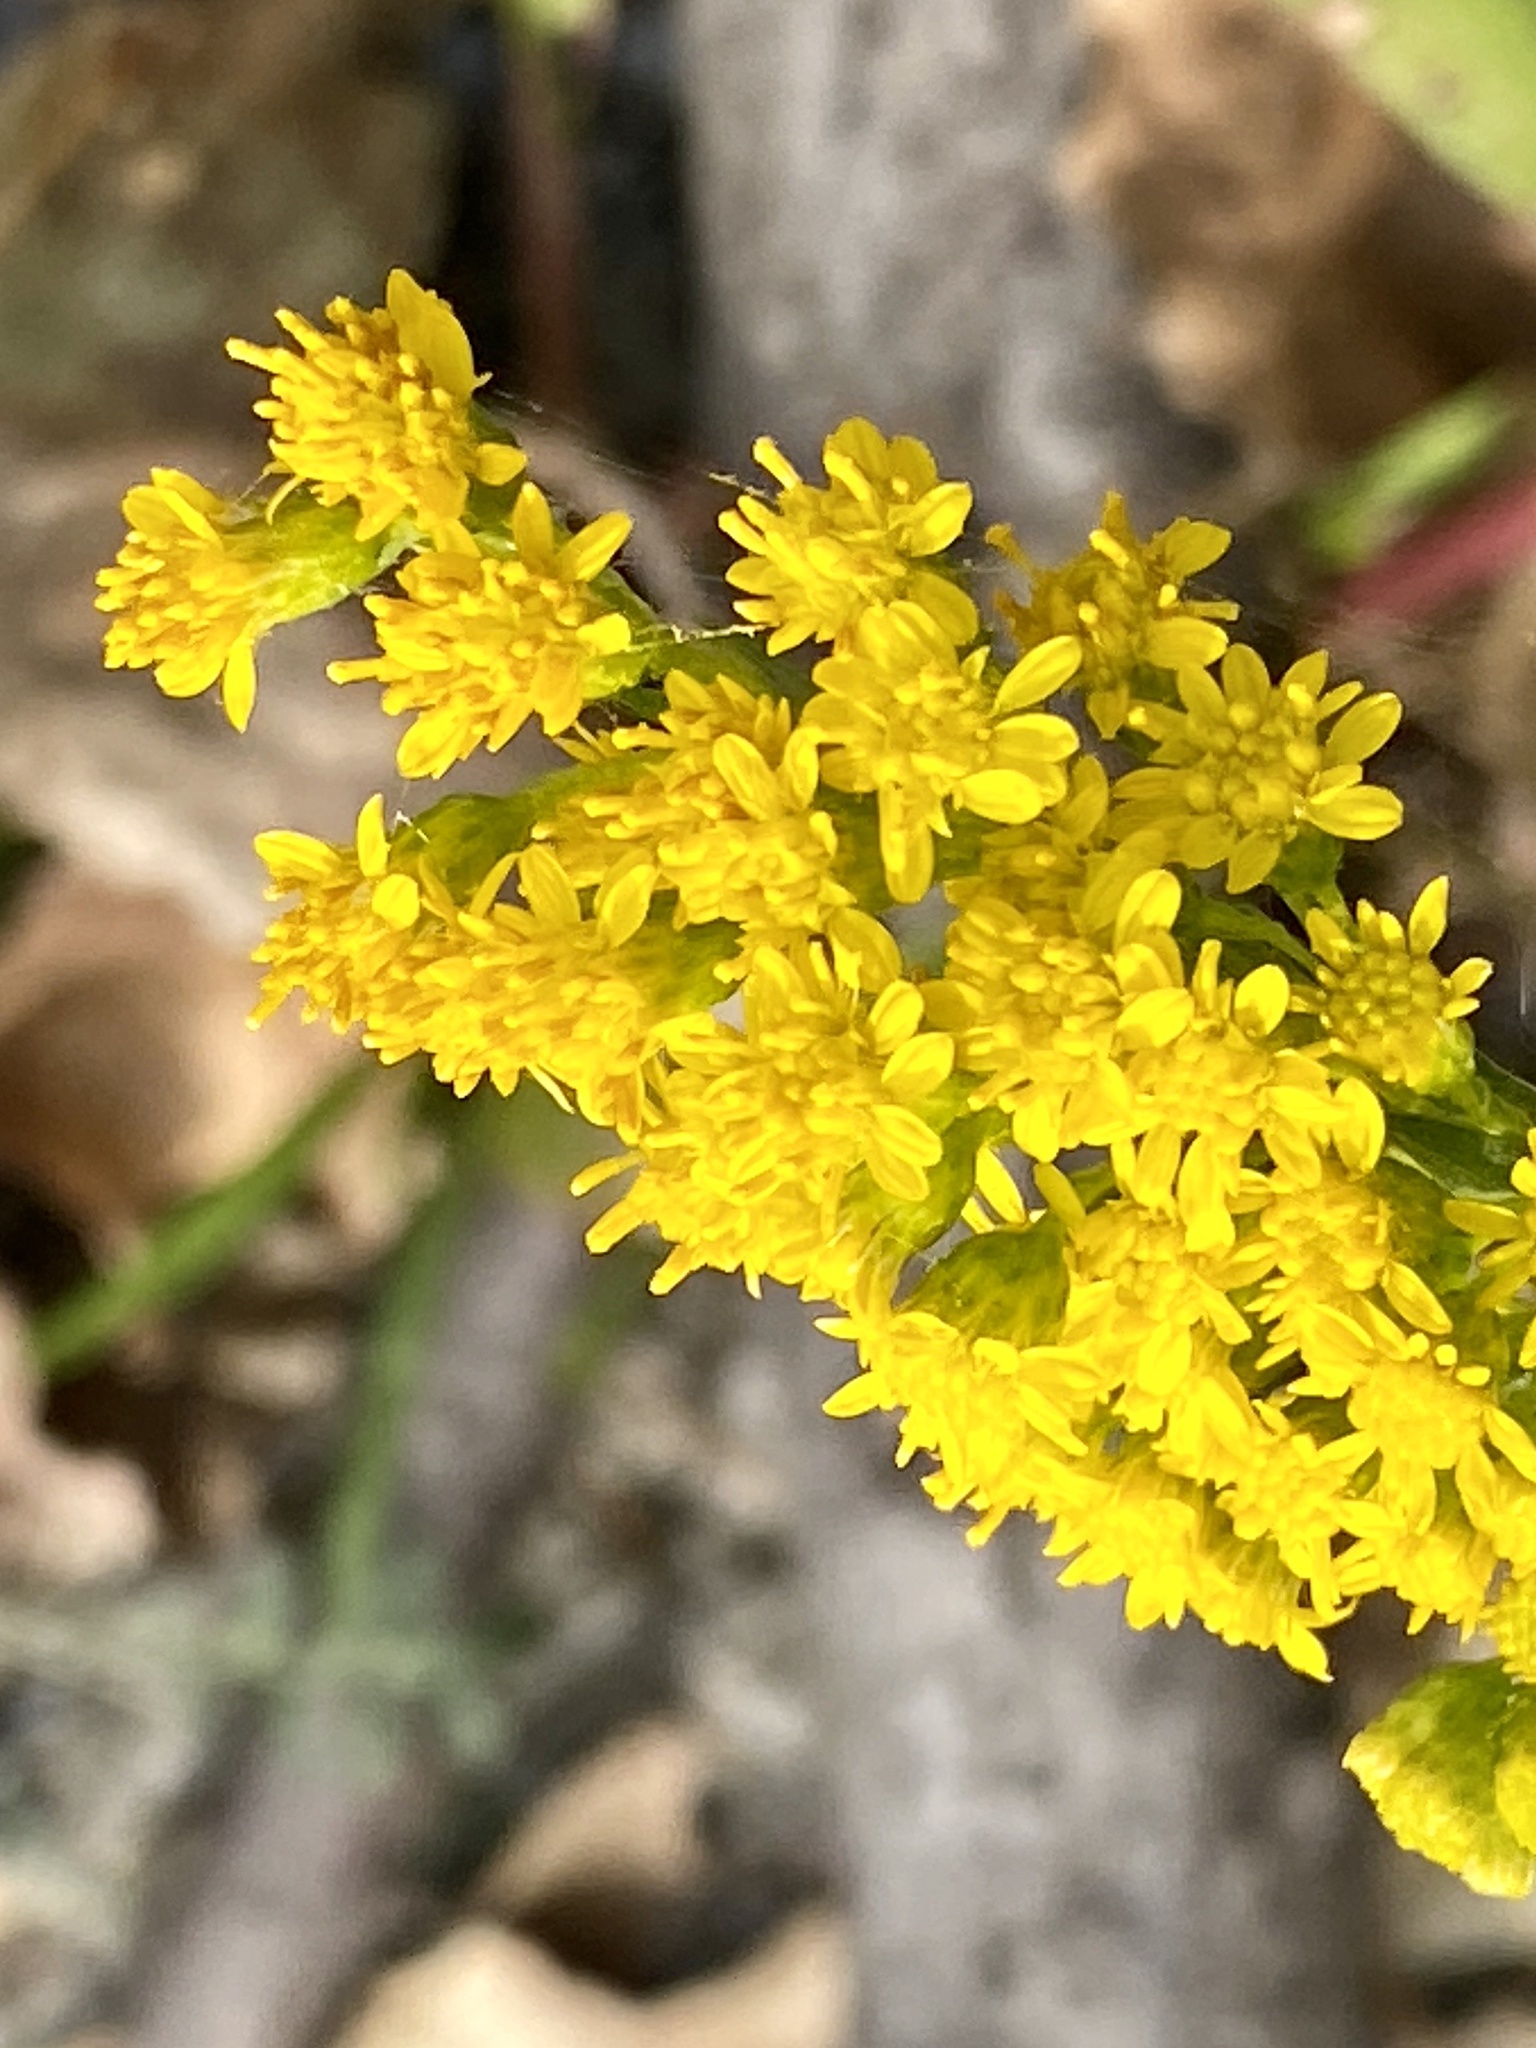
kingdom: Plantae
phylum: Tracheophyta
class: Magnoliopsida
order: Asterales
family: Asteraceae
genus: Solidago
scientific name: Solidago sempervirens
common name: Salt-marsh goldenrod
